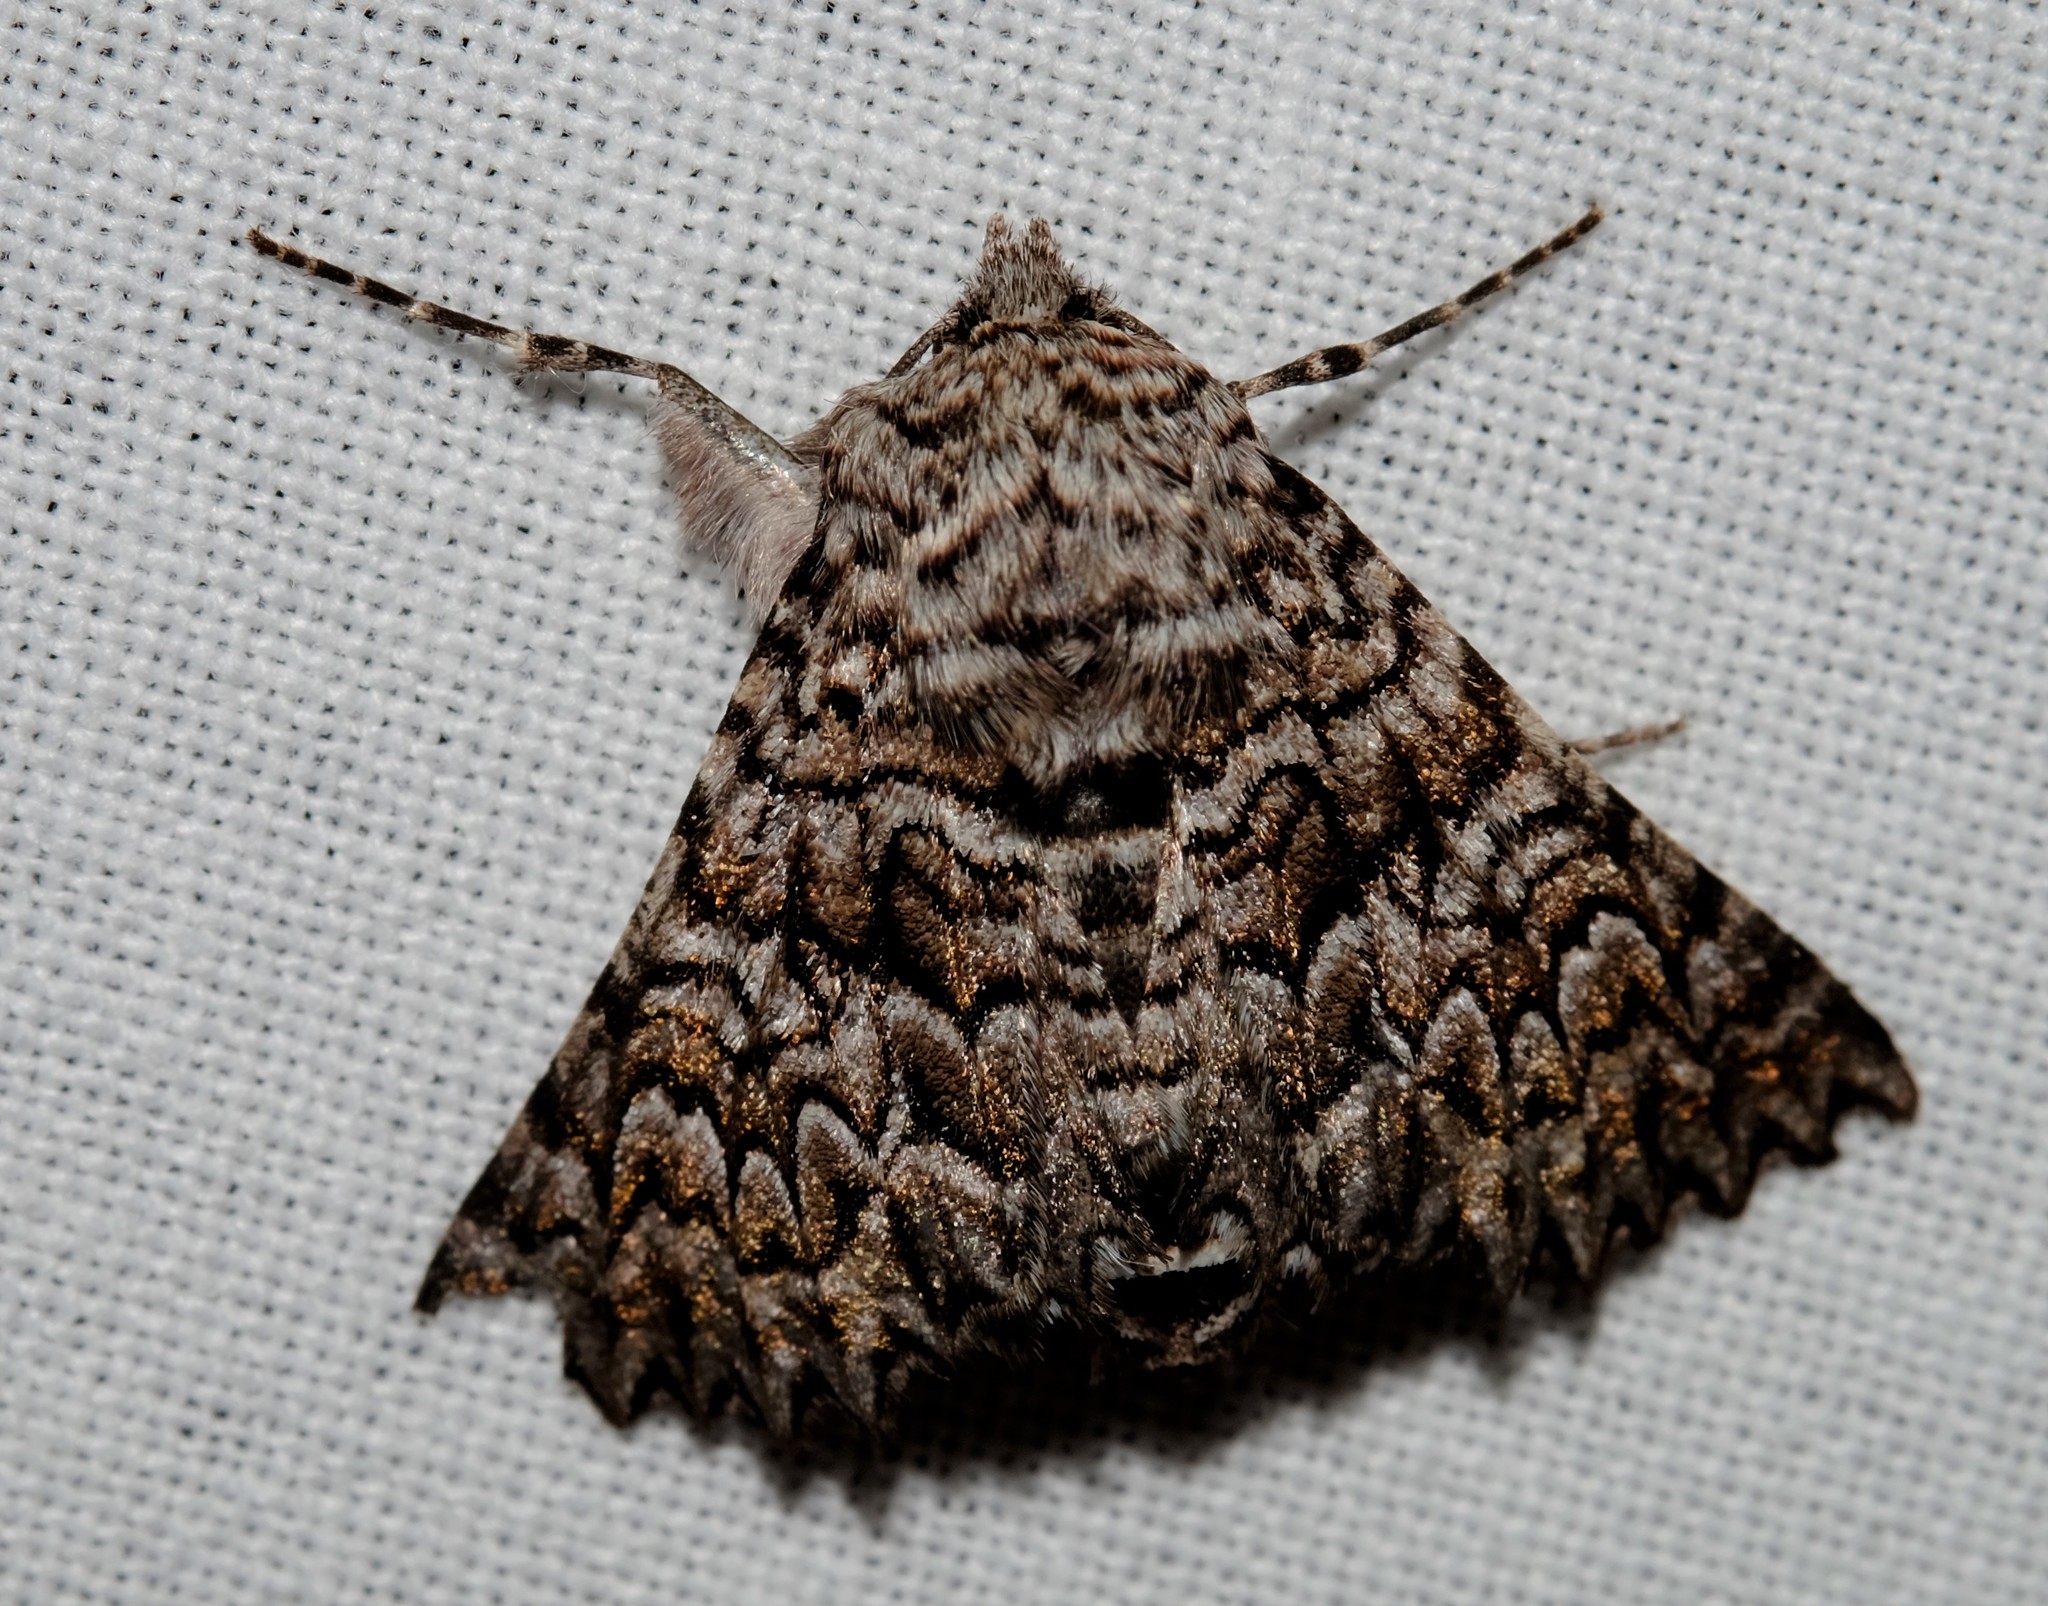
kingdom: Animalia
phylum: Arthropoda
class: Insecta
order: Lepidoptera
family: Geometridae
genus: Dinophalus
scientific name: Dinophalus serpentaria
